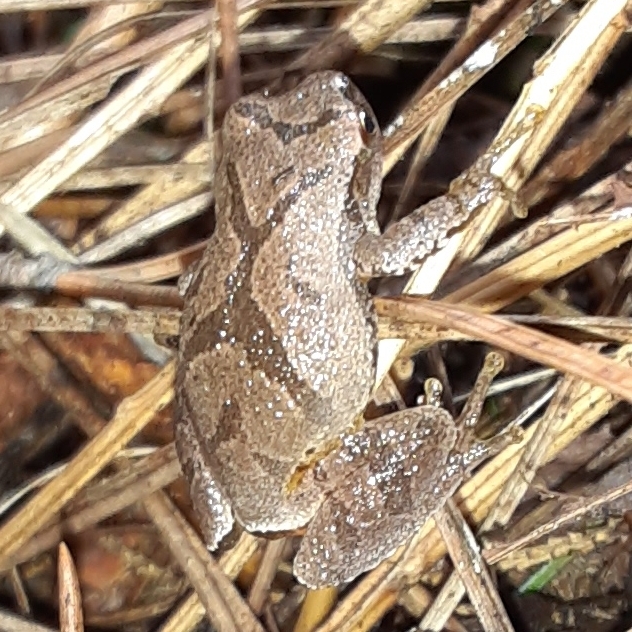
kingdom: Animalia
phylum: Chordata
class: Amphibia
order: Anura
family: Hylidae
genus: Pseudacris
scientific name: Pseudacris crucifer
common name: Spring peeper
